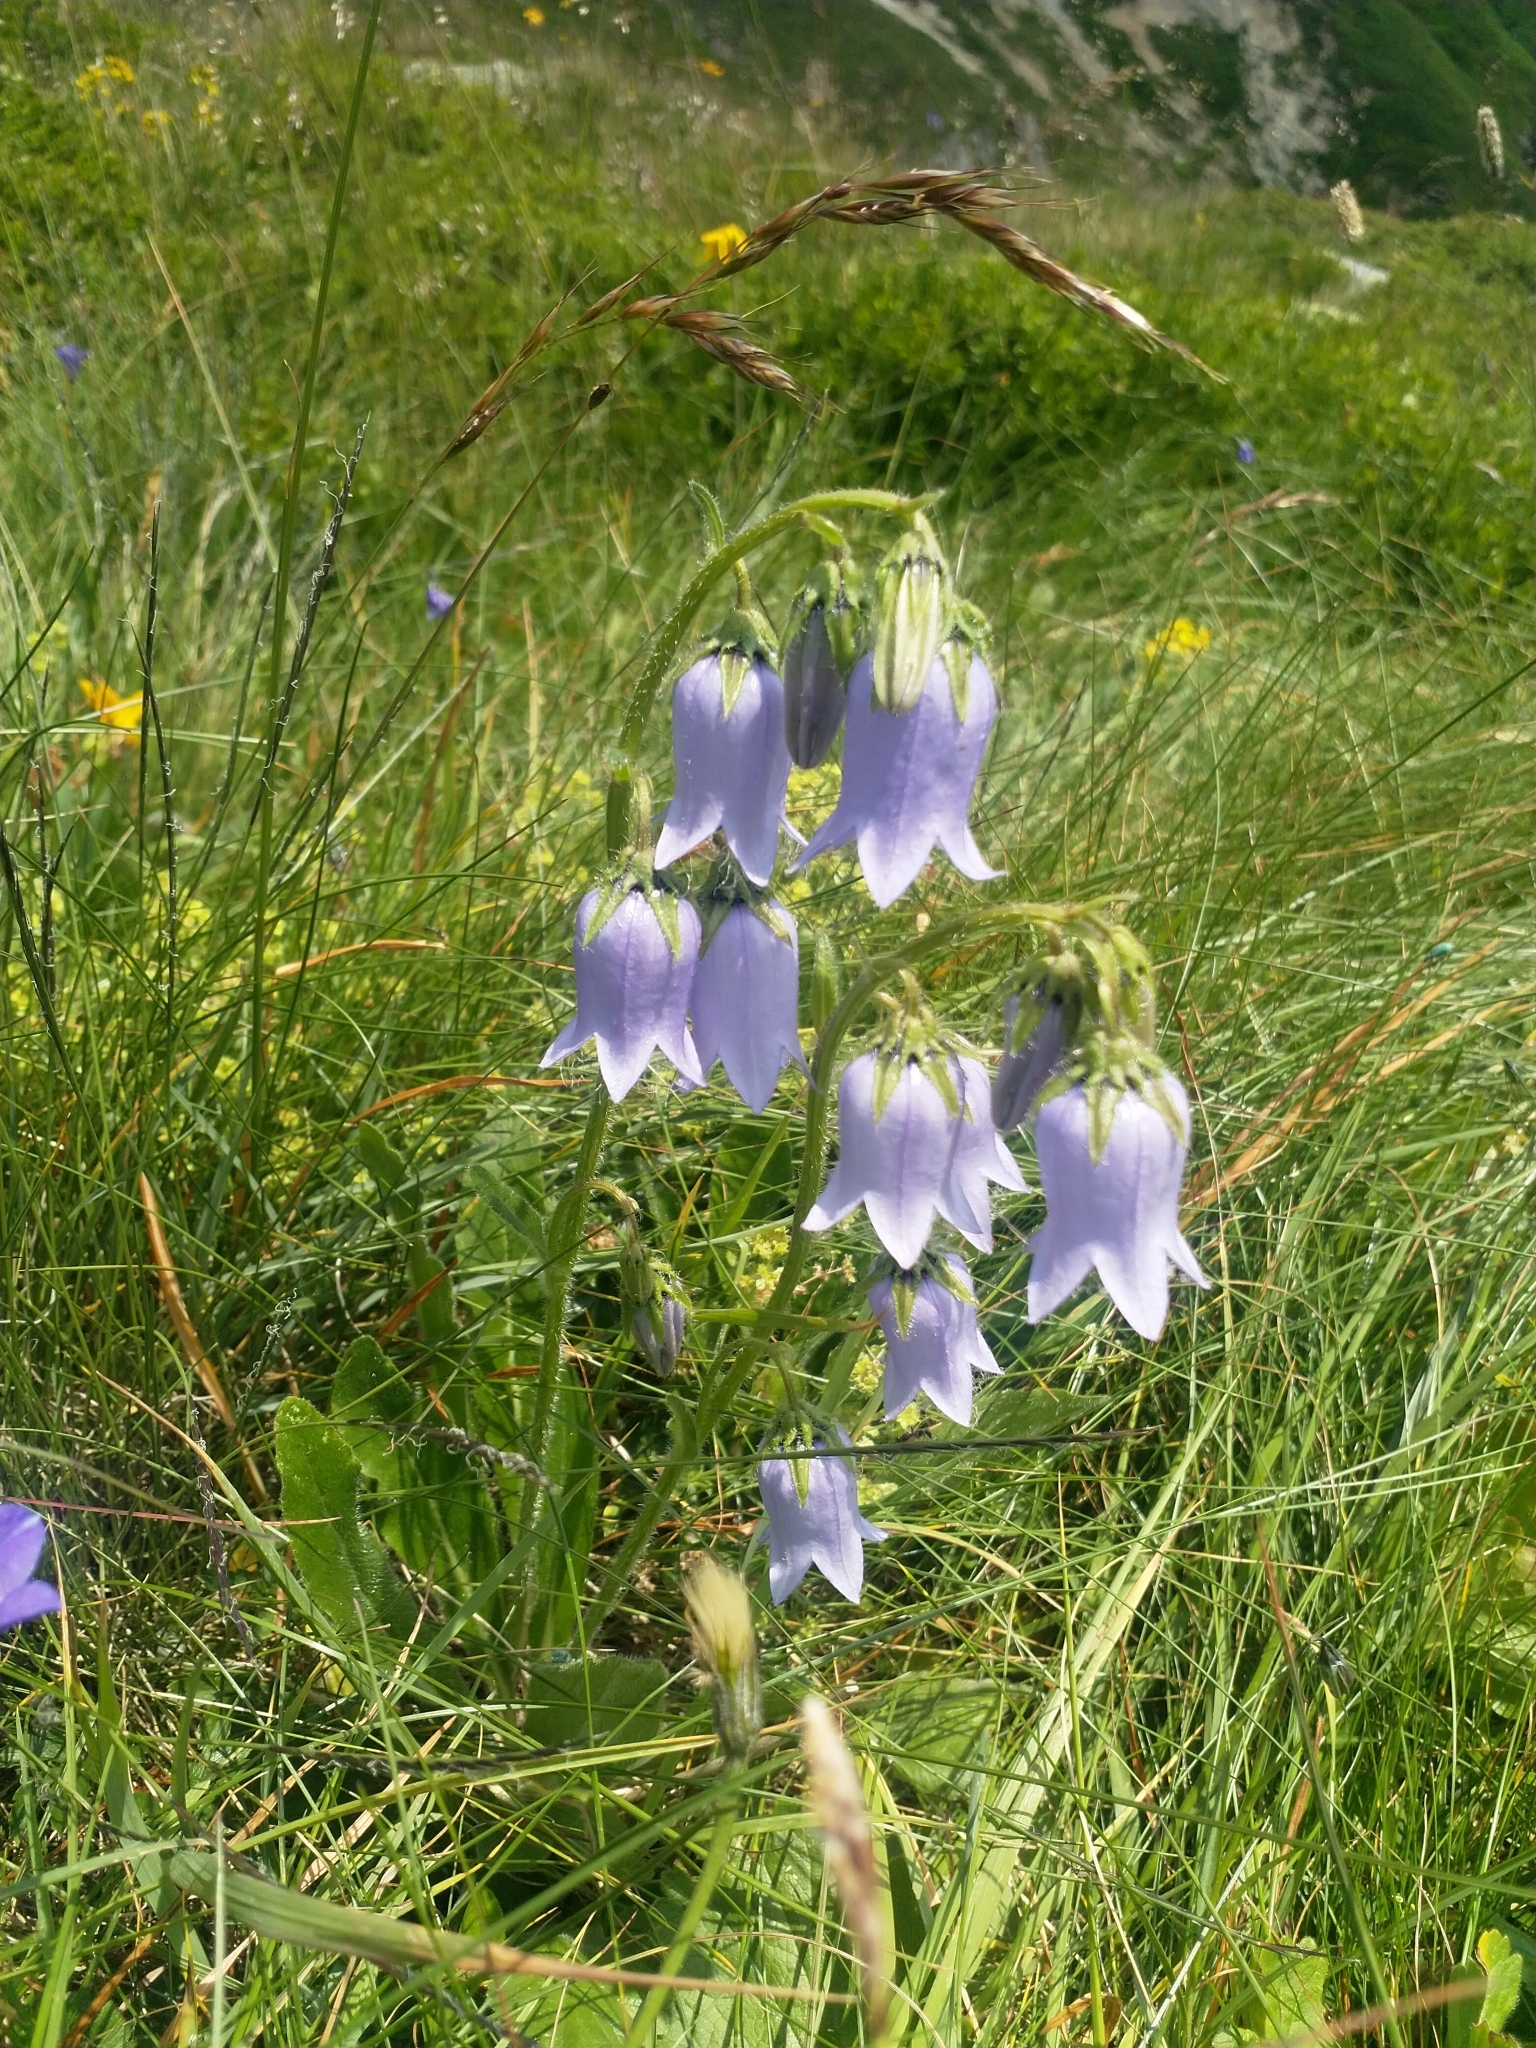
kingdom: Plantae
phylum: Tracheophyta
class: Magnoliopsida
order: Asterales
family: Campanulaceae
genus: Campanula
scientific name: Campanula barbata
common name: Bearded bellflower
